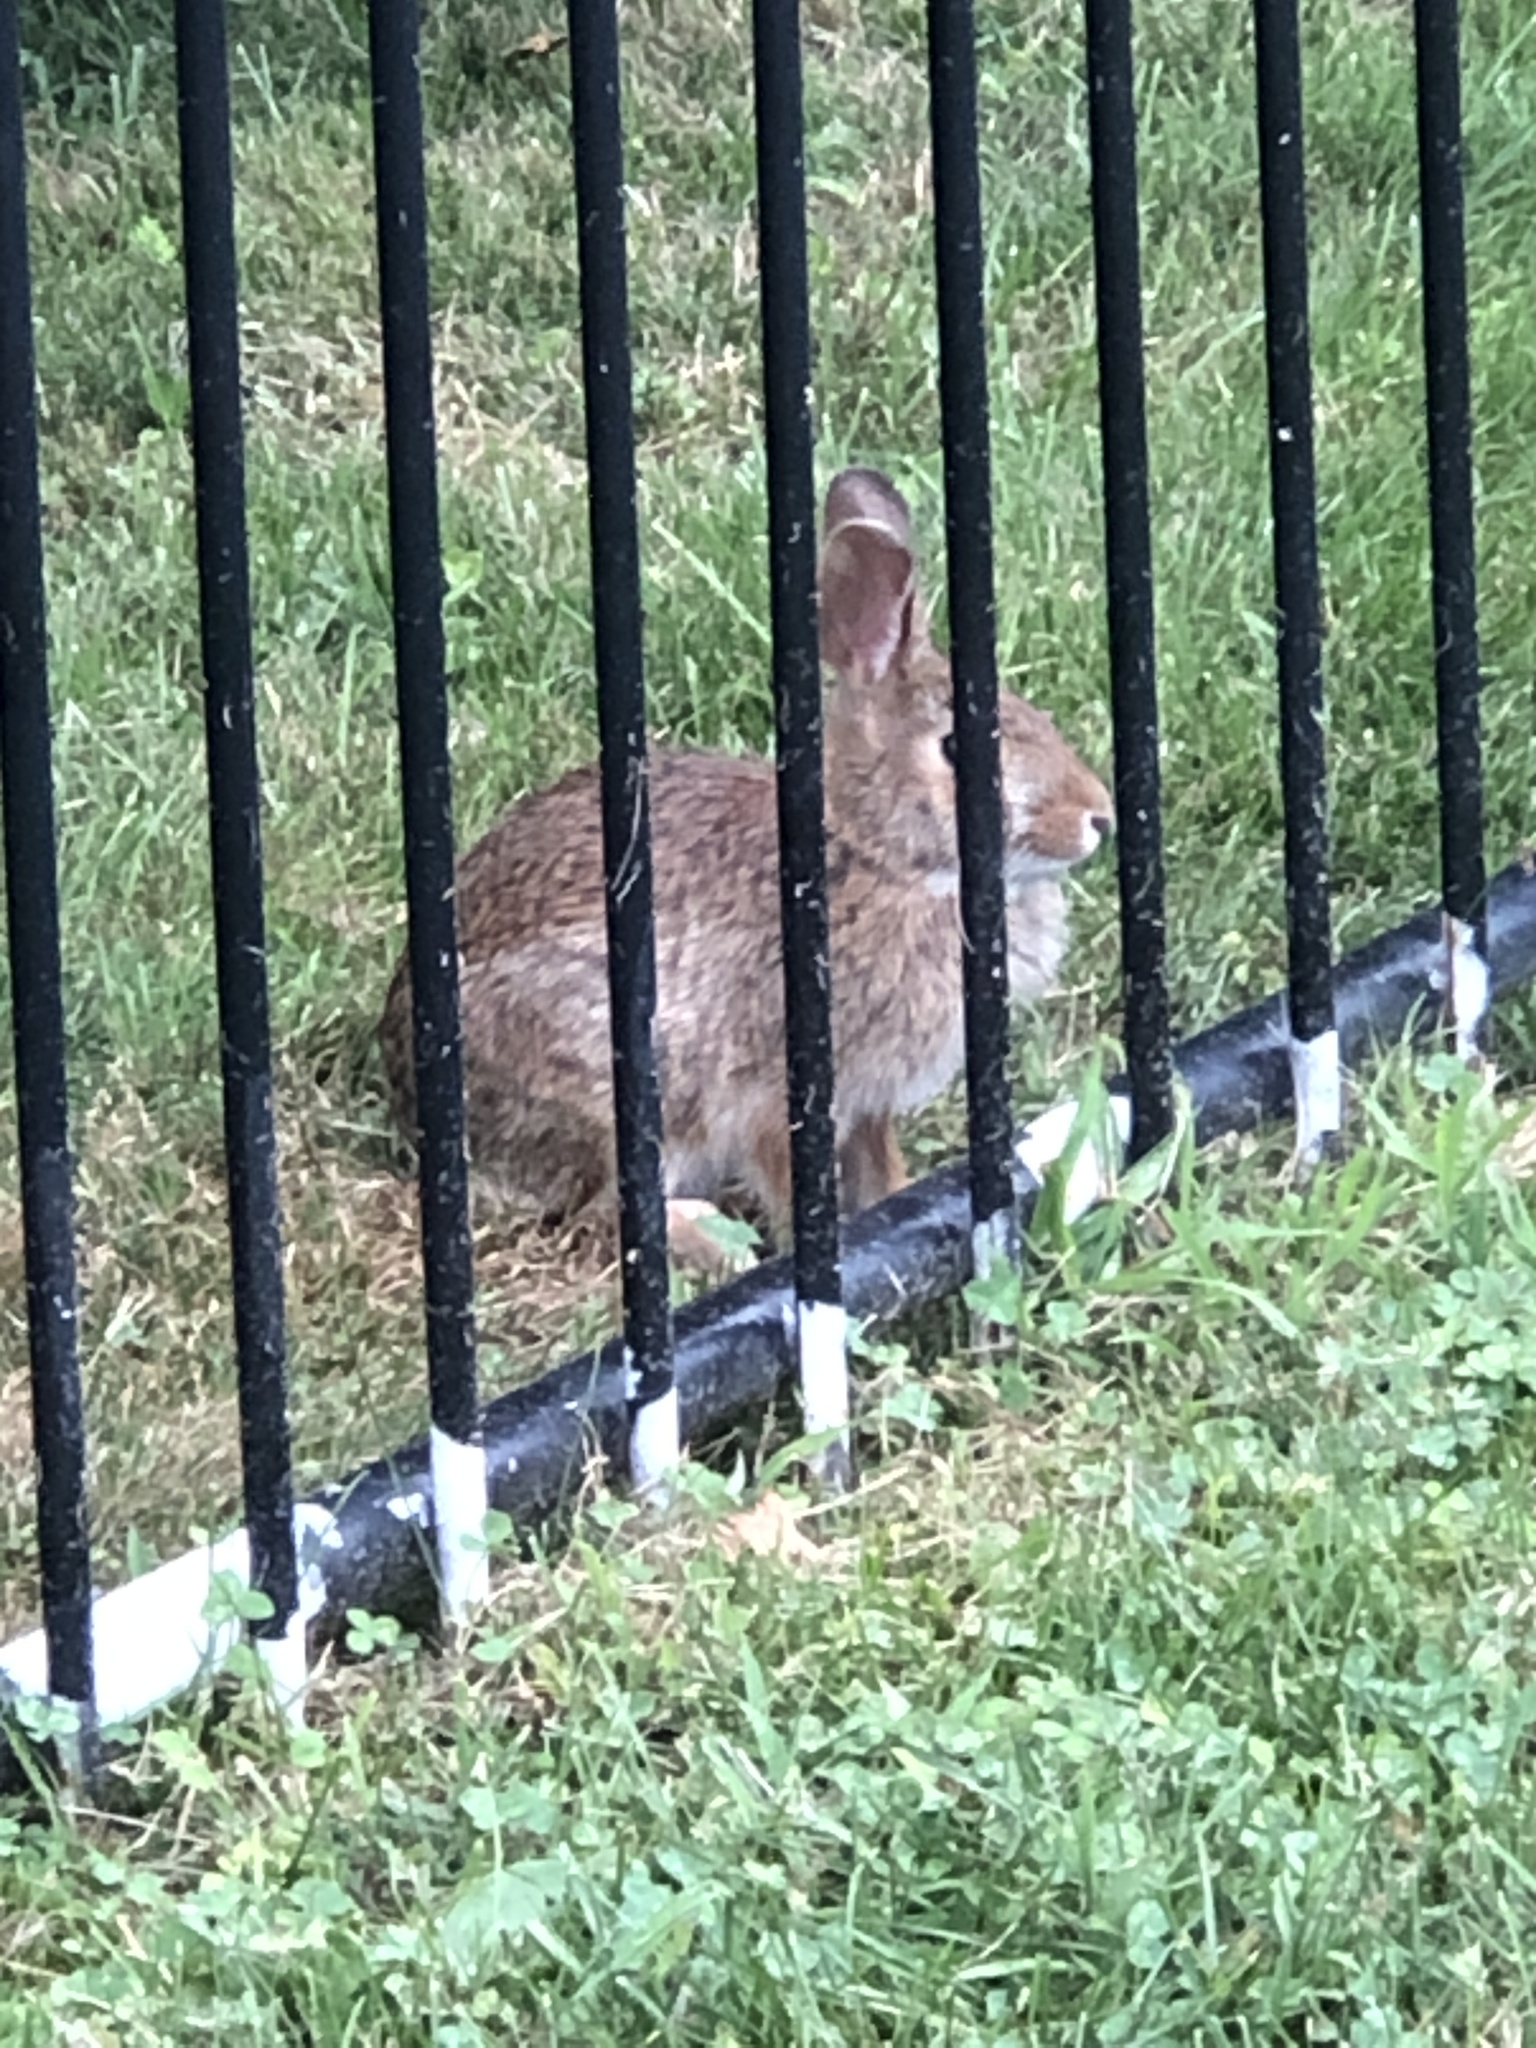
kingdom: Animalia
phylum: Chordata
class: Mammalia
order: Lagomorpha
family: Leporidae
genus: Sylvilagus
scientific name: Sylvilagus floridanus
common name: Eastern cottontail
